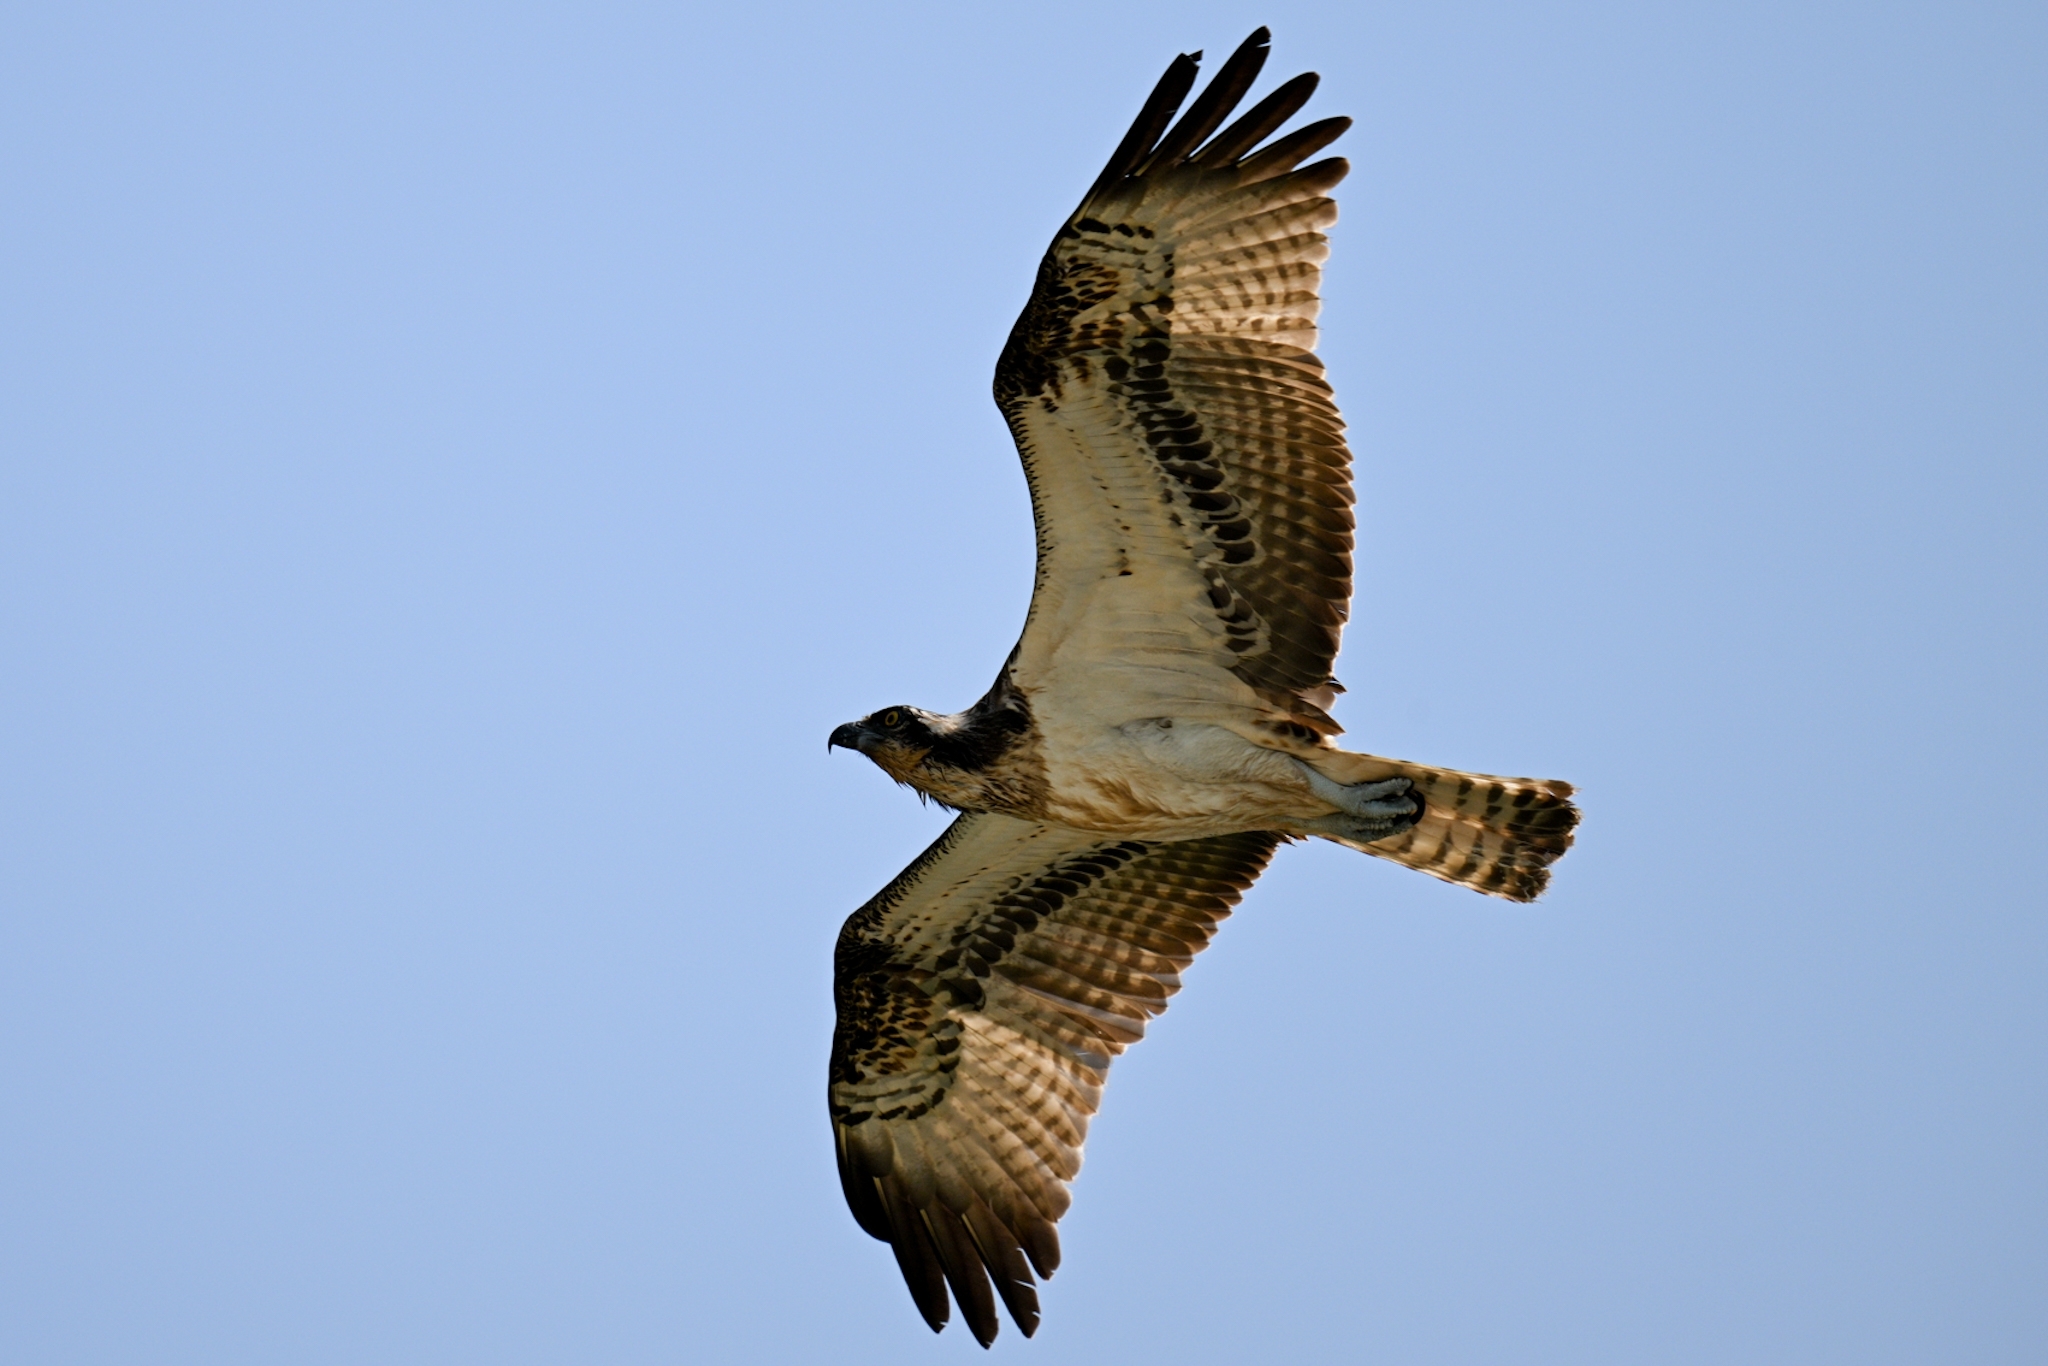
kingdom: Animalia
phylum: Chordata
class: Aves
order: Accipitriformes
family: Pandionidae
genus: Pandion
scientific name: Pandion haliaetus
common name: Osprey
